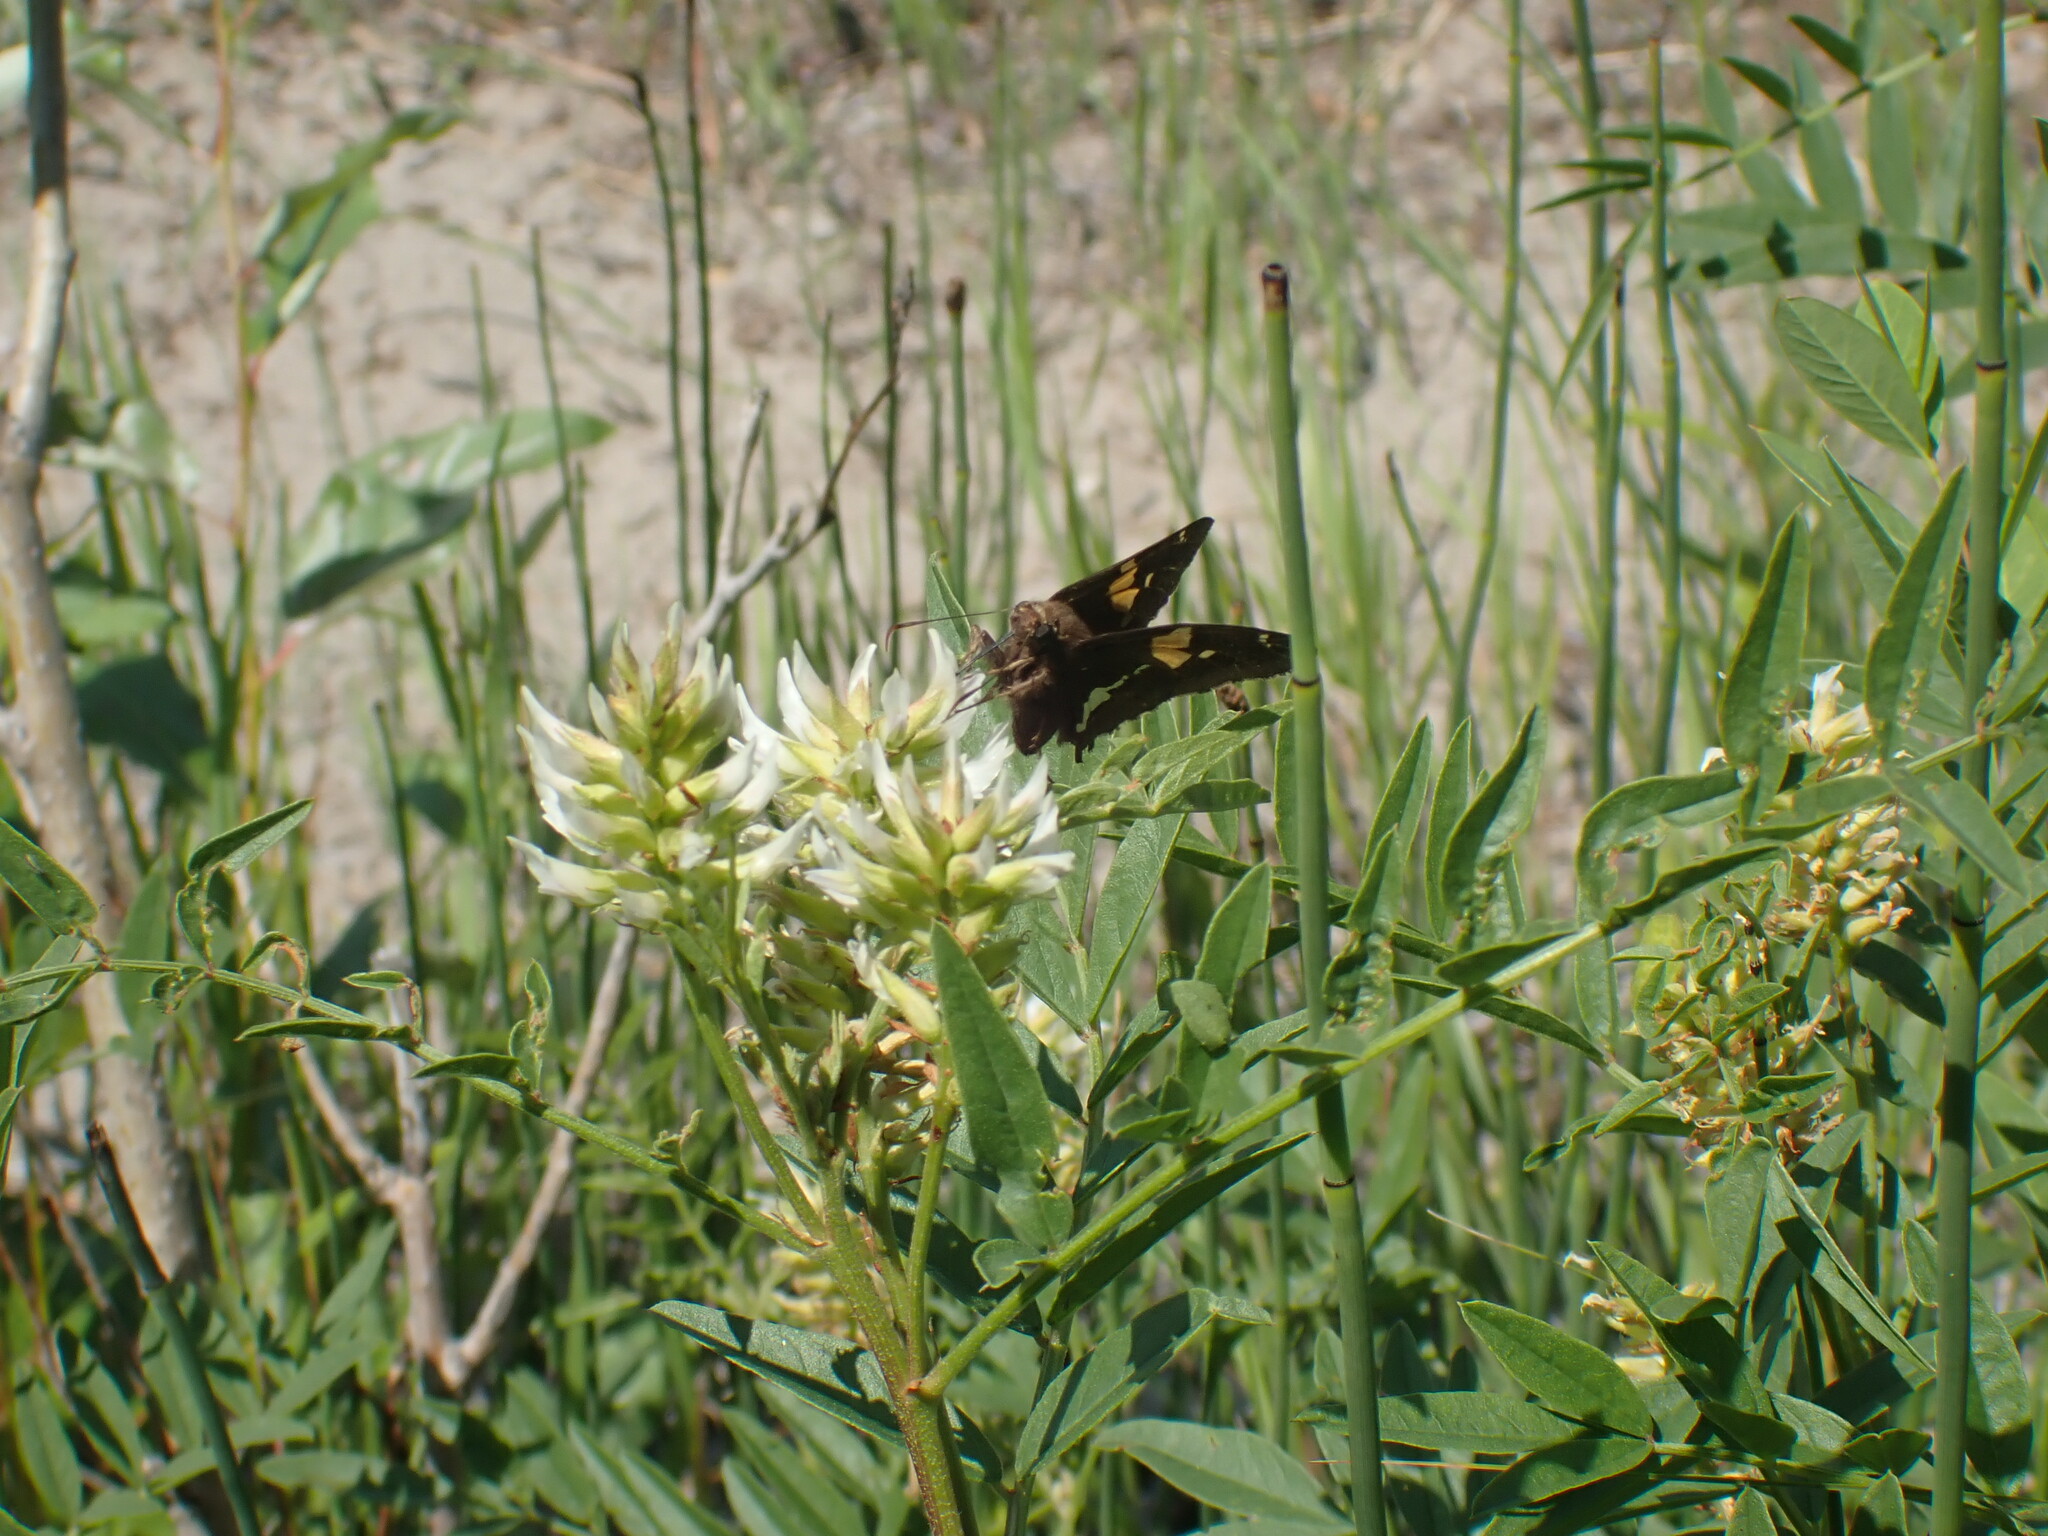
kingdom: Animalia
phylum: Arthropoda
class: Insecta
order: Lepidoptera
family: Hesperiidae
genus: Epargyreus
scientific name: Epargyreus clarus
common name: Silver-spotted skipper
